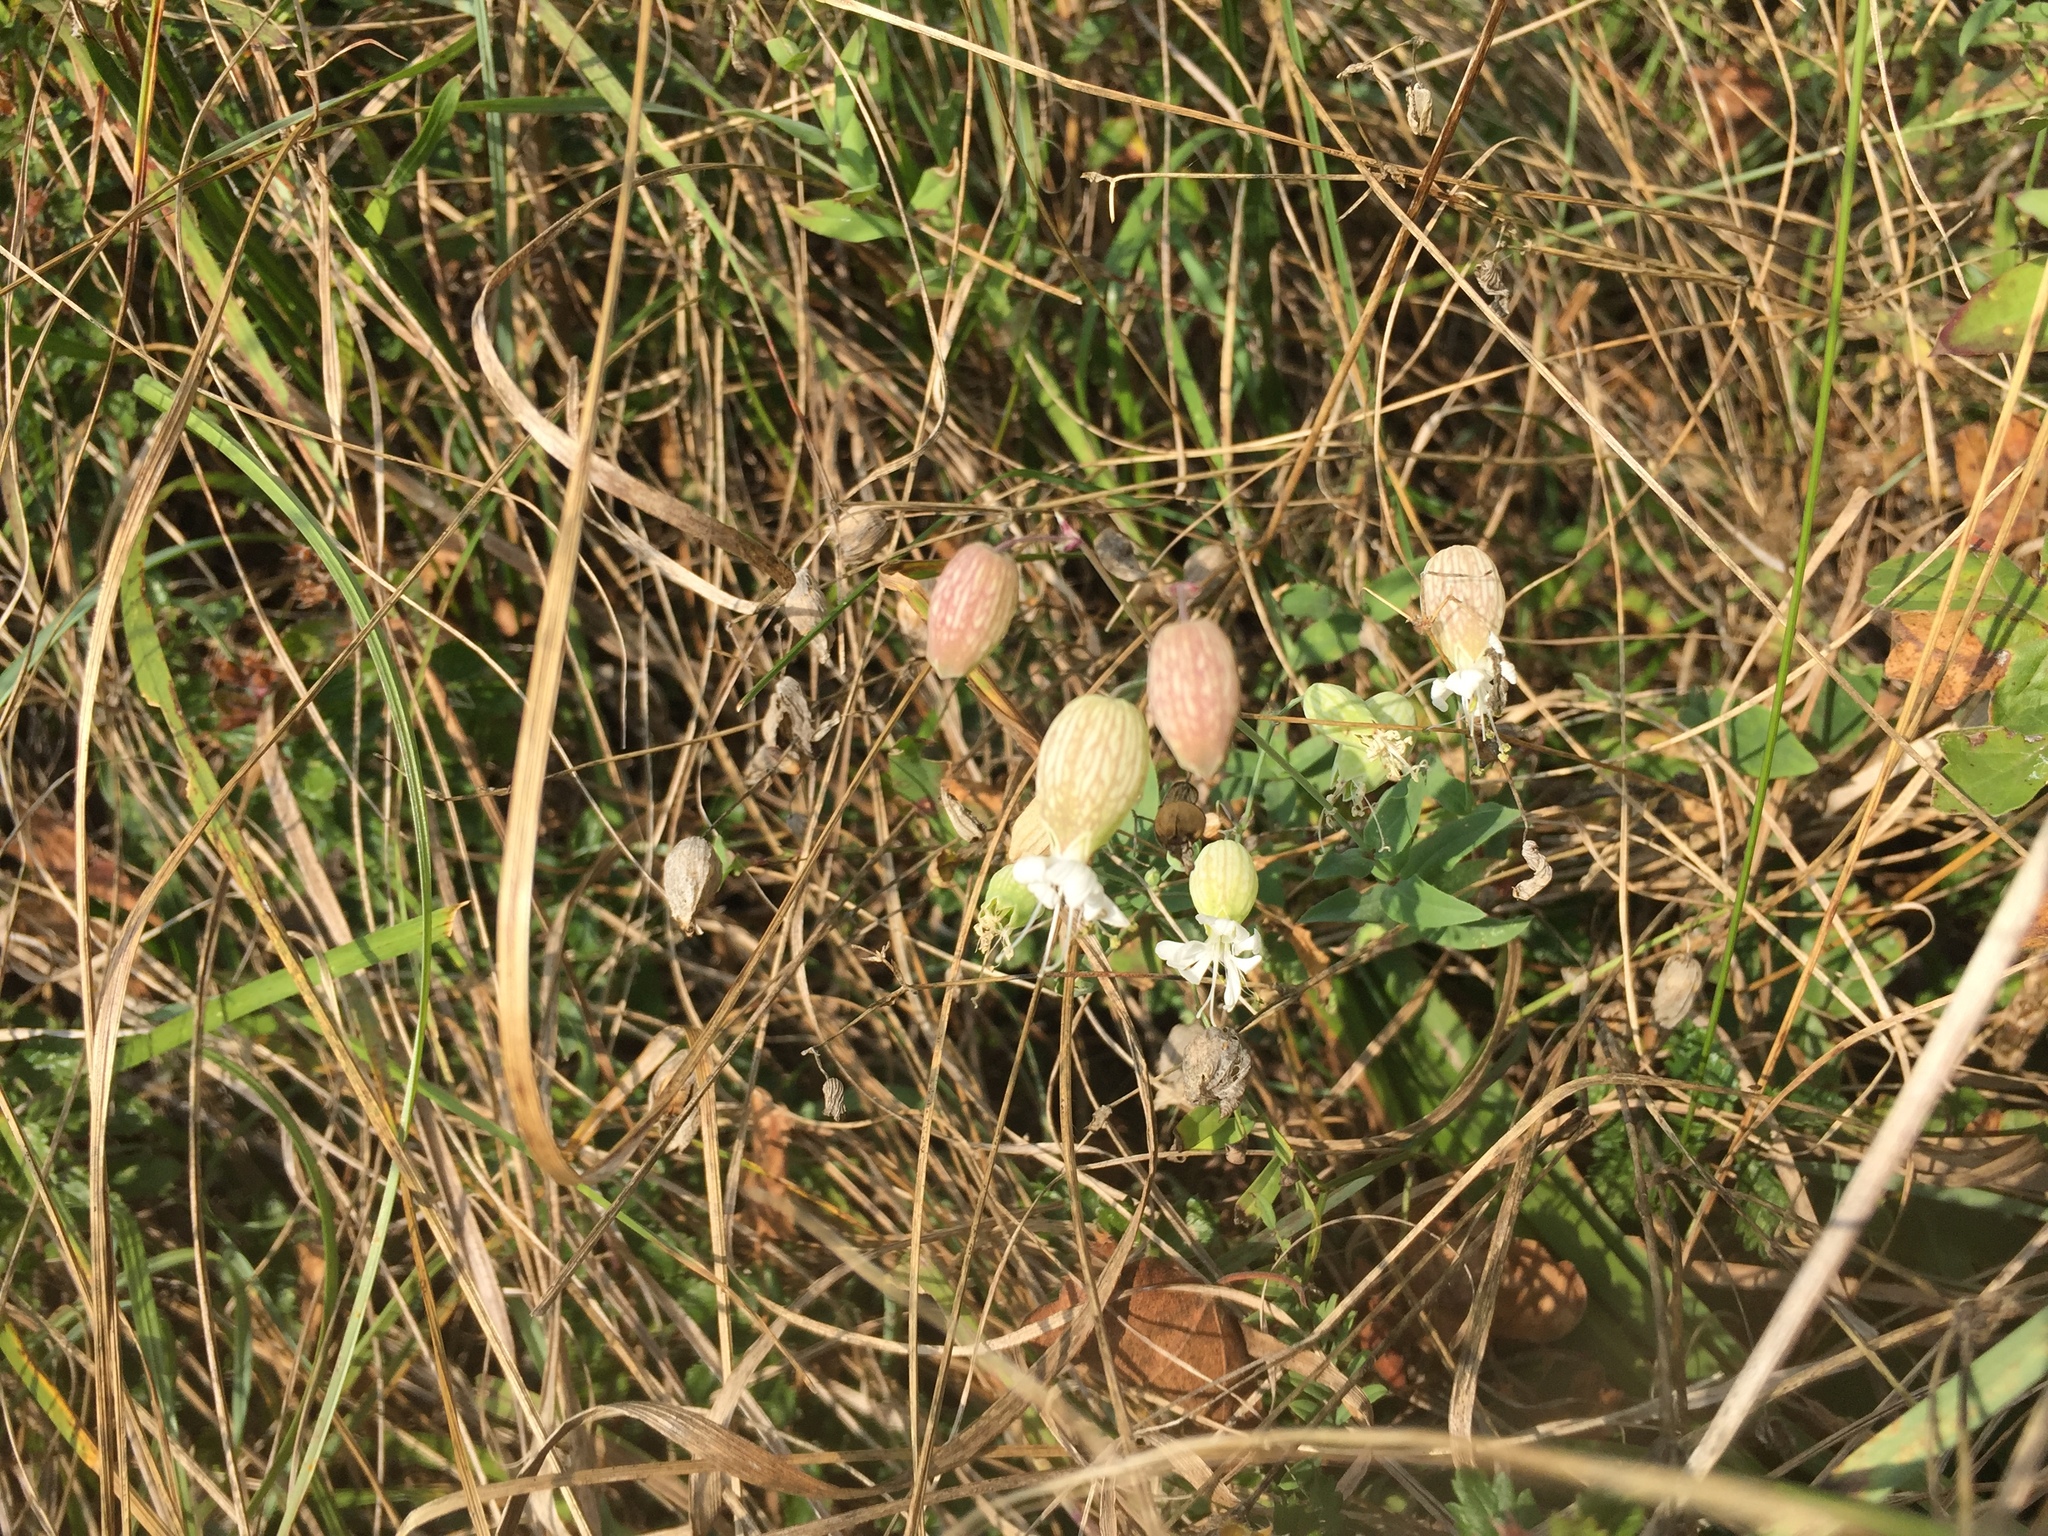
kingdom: Plantae
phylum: Tracheophyta
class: Magnoliopsida
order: Caryophyllales
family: Caryophyllaceae
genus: Silene
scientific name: Silene vulgaris
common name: Bladder campion
